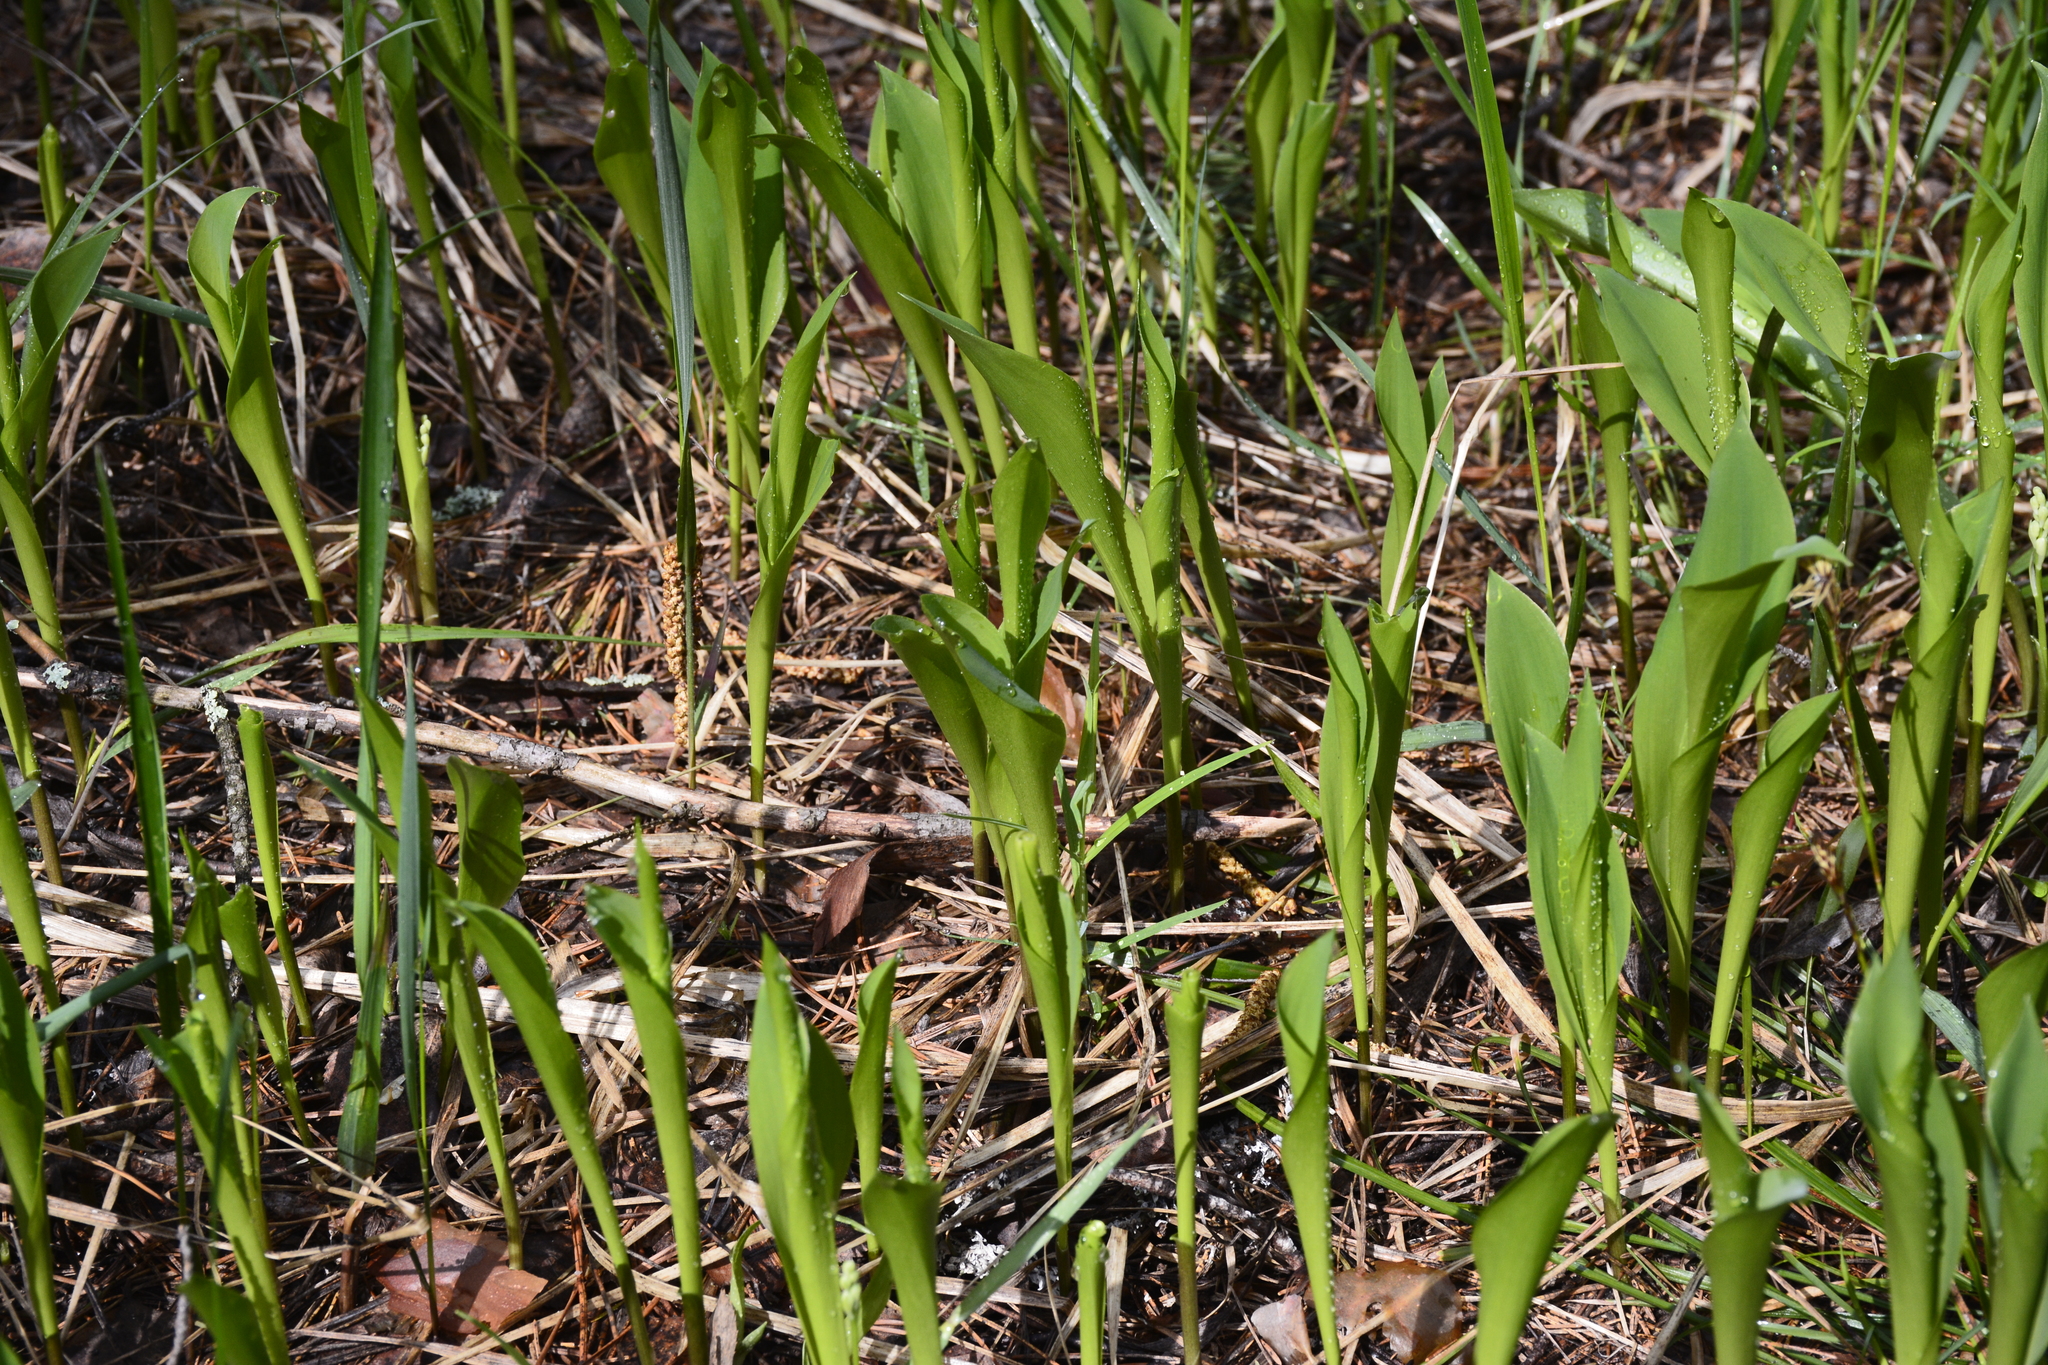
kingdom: Plantae
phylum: Tracheophyta
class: Liliopsida
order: Asparagales
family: Asparagaceae
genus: Convallaria
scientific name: Convallaria majalis
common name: Lily-of-the-valley
